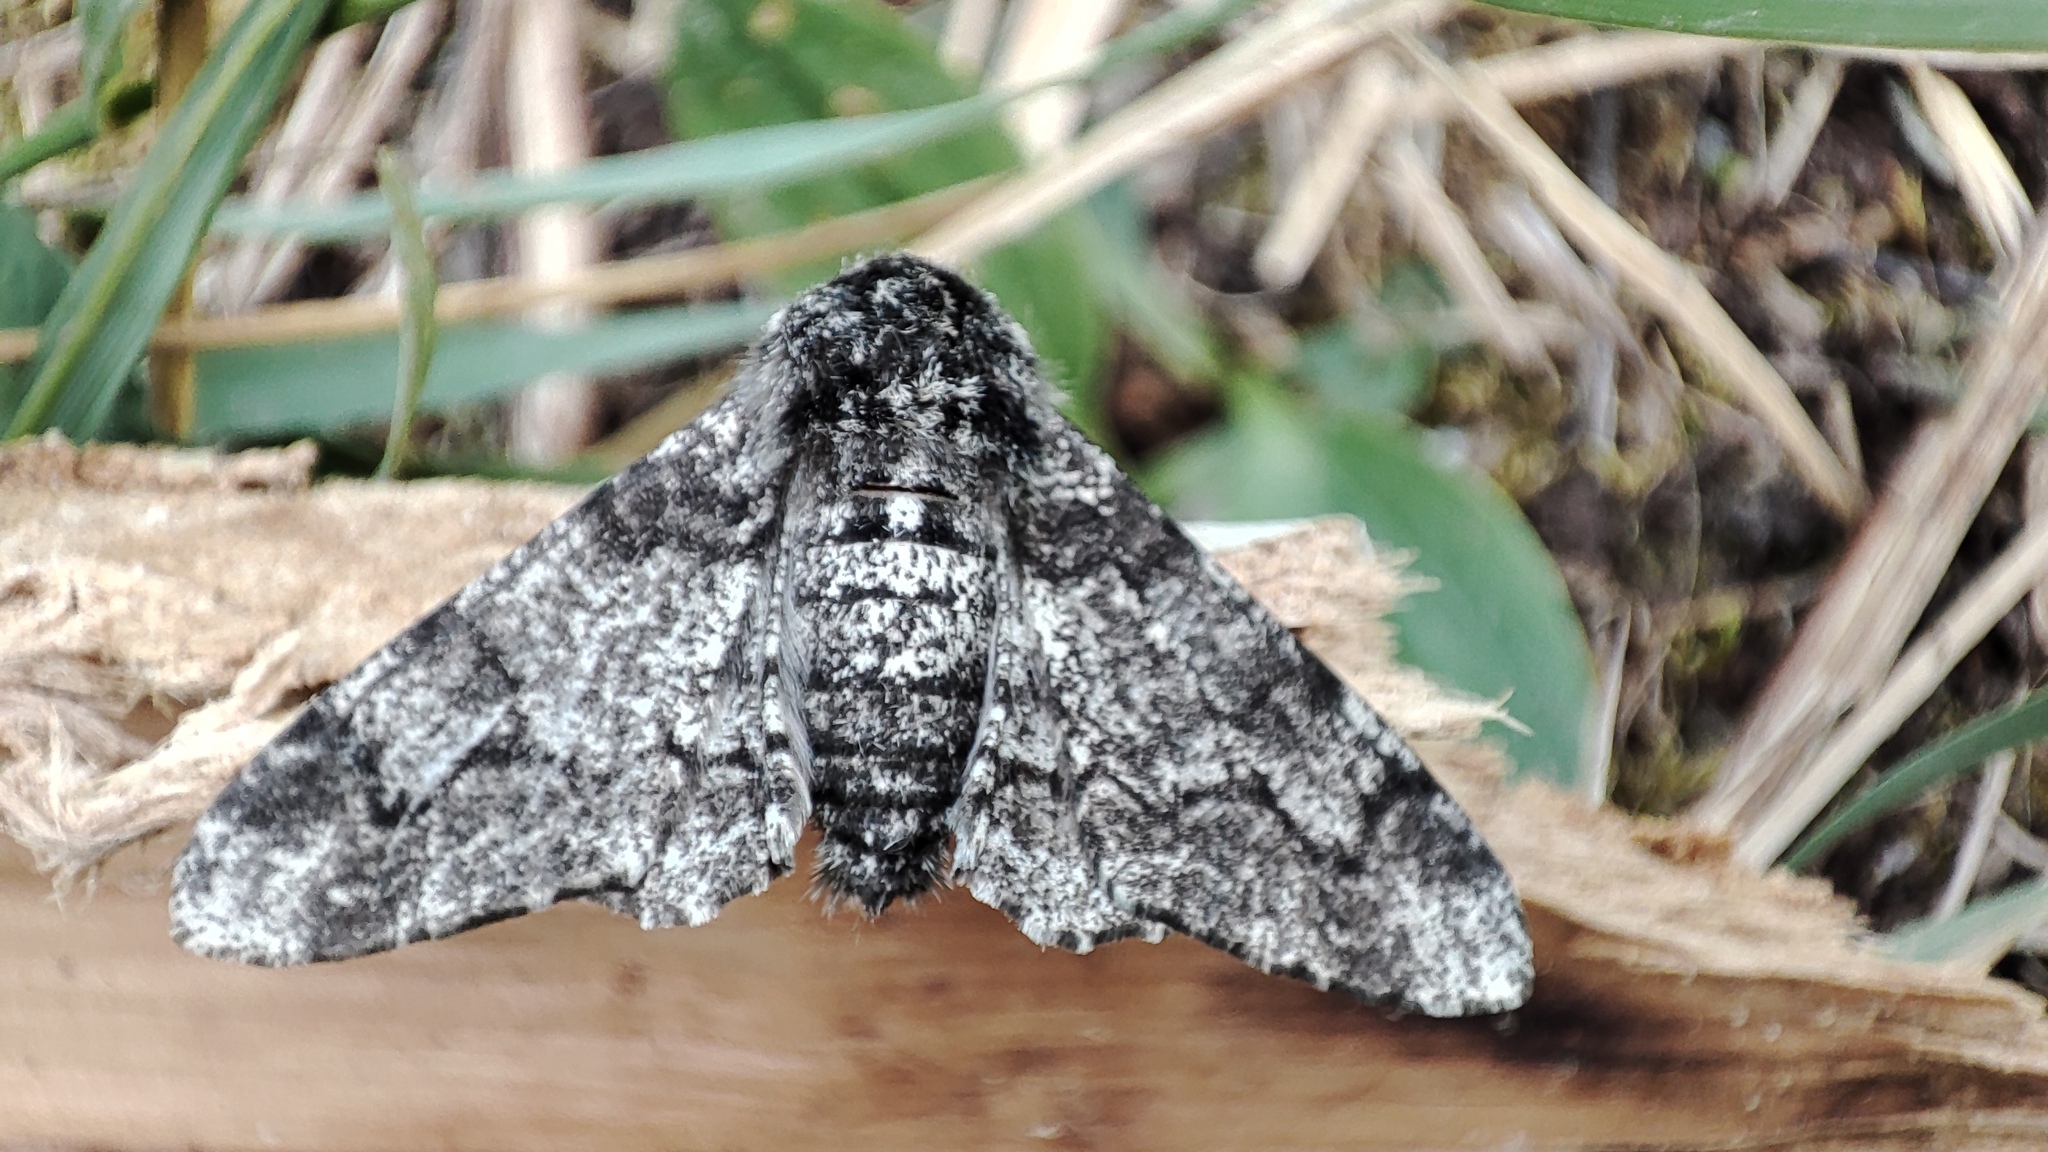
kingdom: Animalia
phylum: Arthropoda
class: Insecta
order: Lepidoptera
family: Geometridae
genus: Biston
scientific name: Biston betularia
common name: Peppered moth
